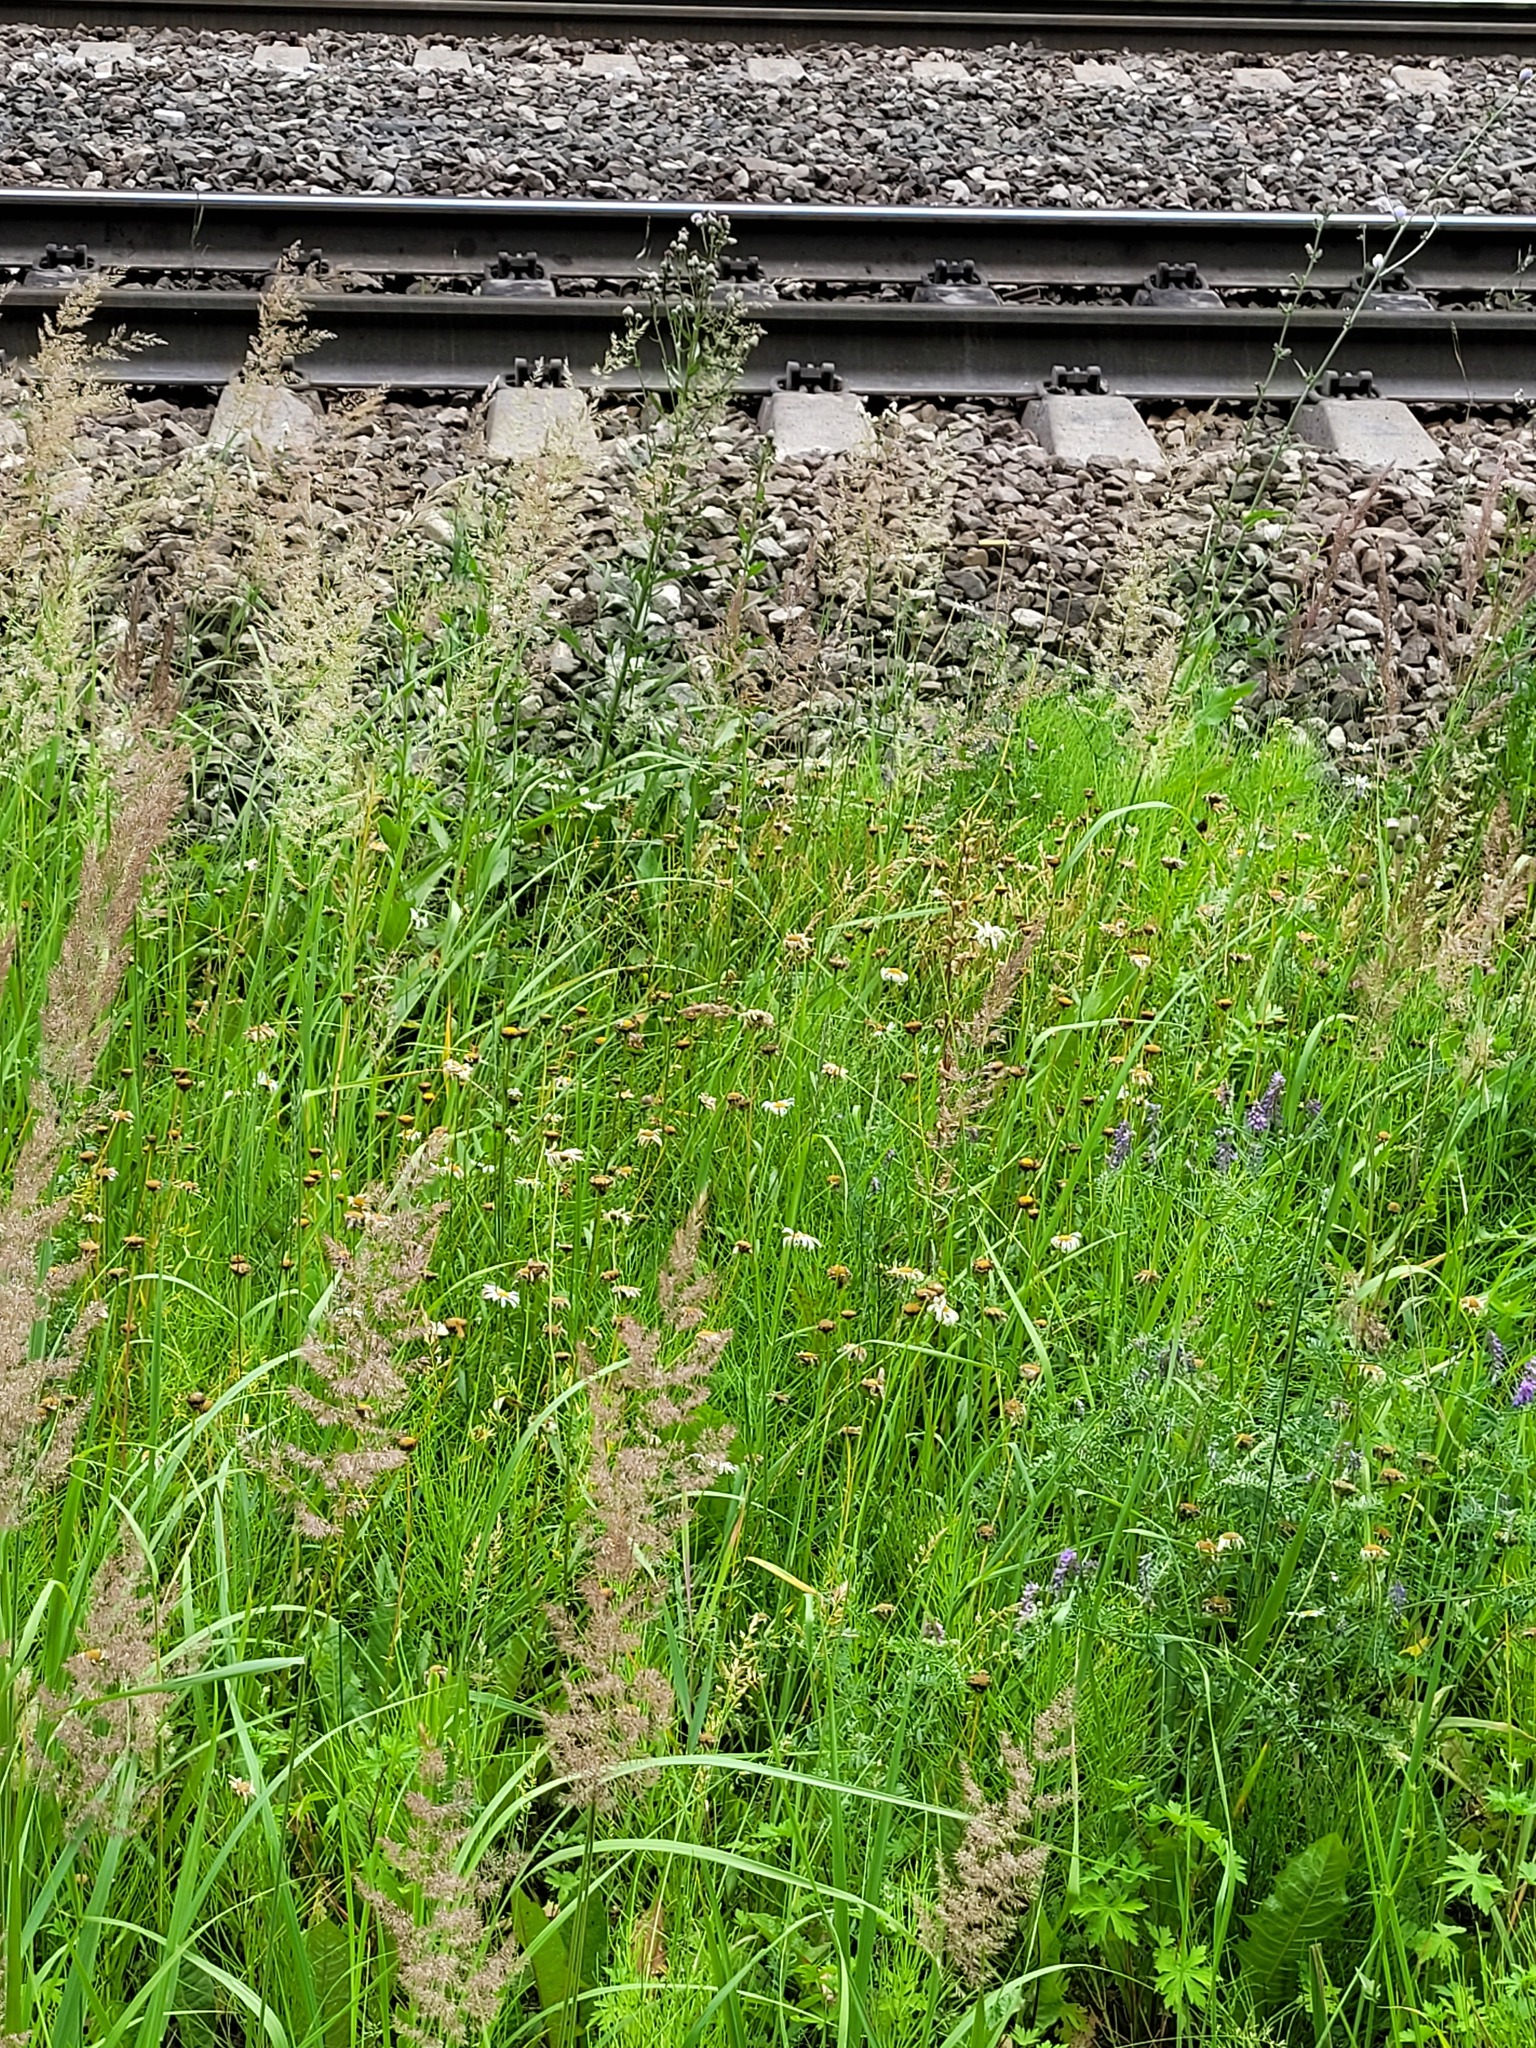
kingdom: Plantae
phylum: Tracheophyta
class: Magnoliopsida
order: Asterales
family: Asteraceae
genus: Leucanthemum
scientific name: Leucanthemum vulgare
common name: Oxeye daisy
